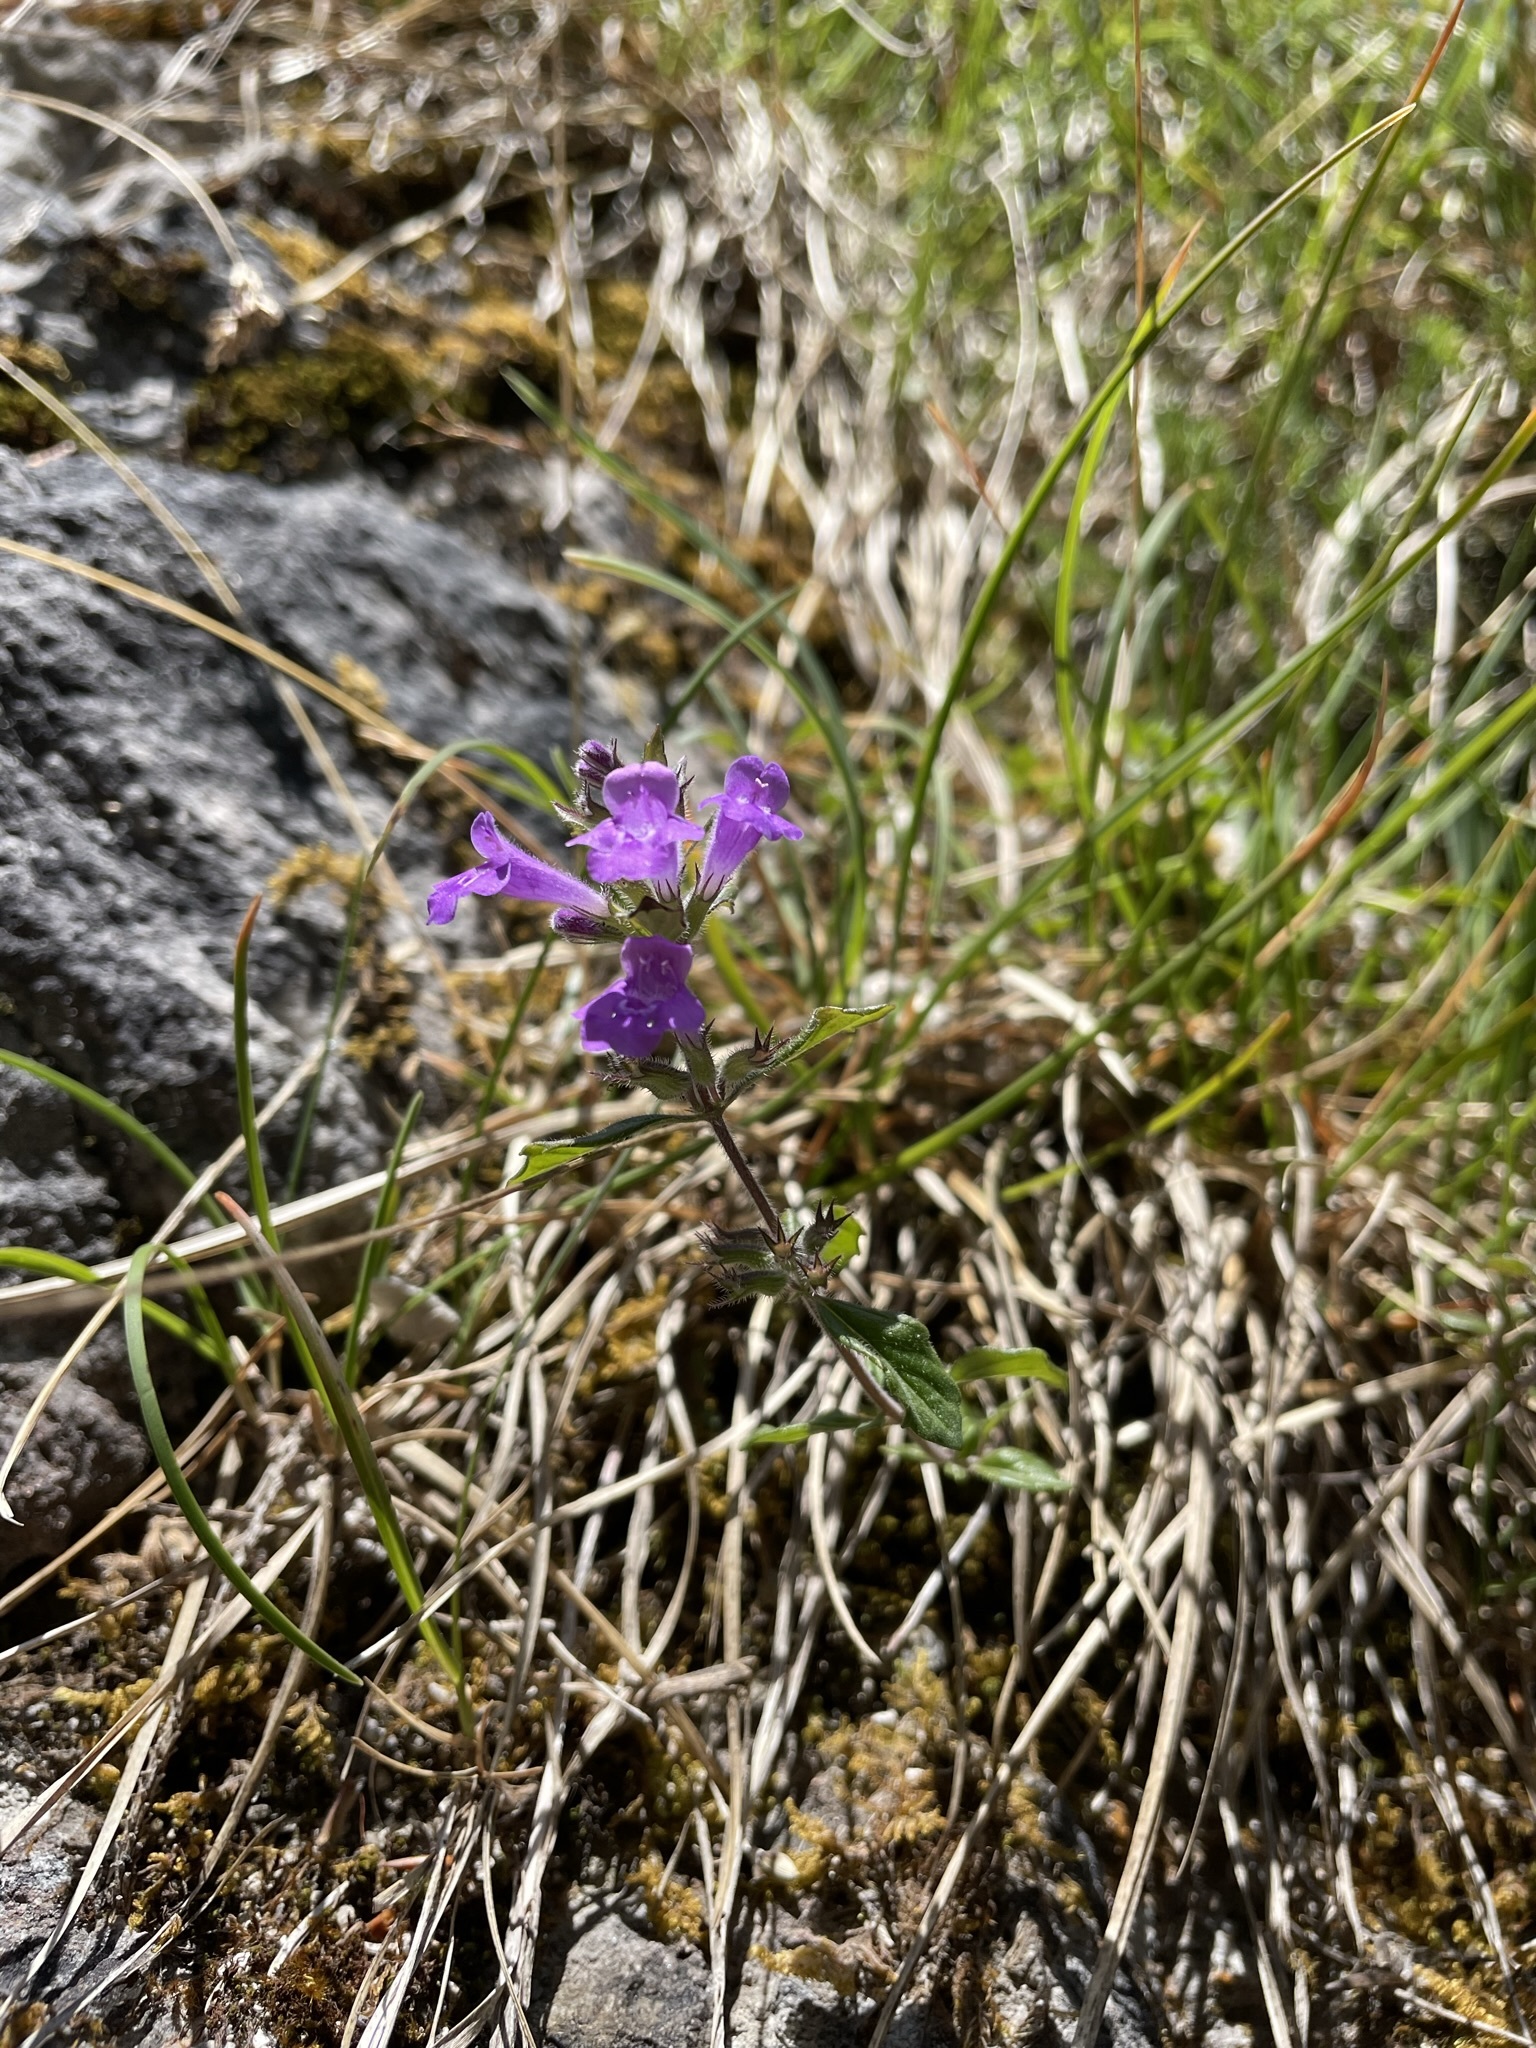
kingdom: Plantae
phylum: Tracheophyta
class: Magnoliopsida
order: Lamiales
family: Lamiaceae
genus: Clinopodium
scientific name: Clinopodium alpinum
